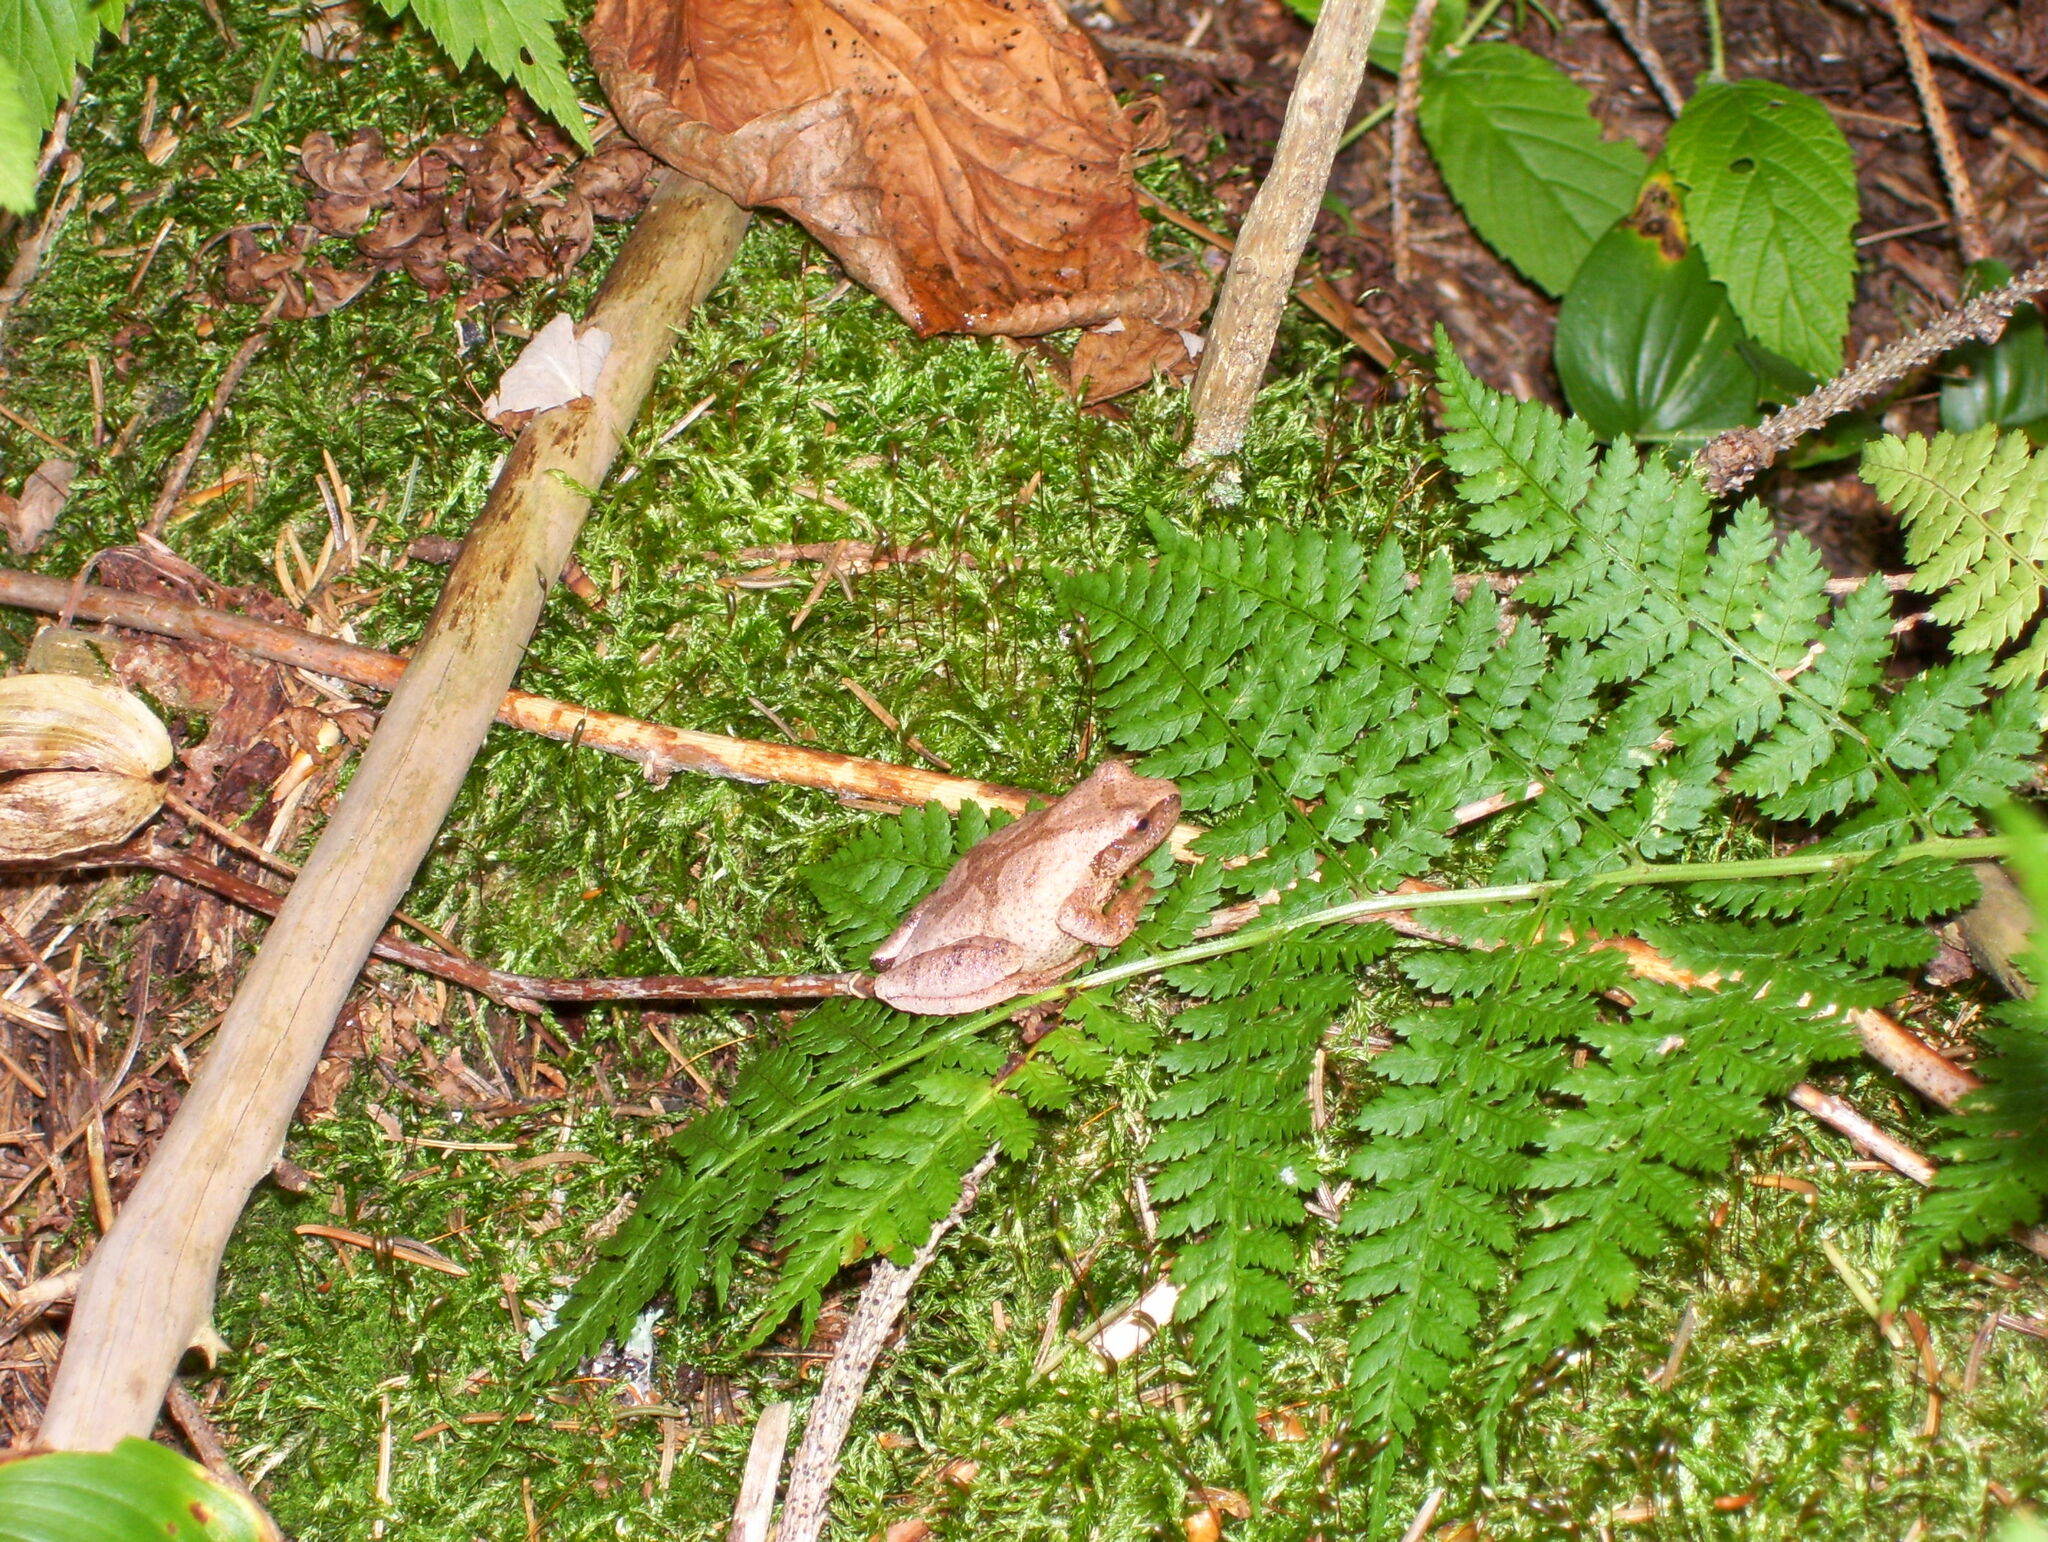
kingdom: Animalia
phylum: Chordata
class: Amphibia
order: Anura
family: Hylidae
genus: Pseudacris
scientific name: Pseudacris crucifer
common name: Spring peeper
